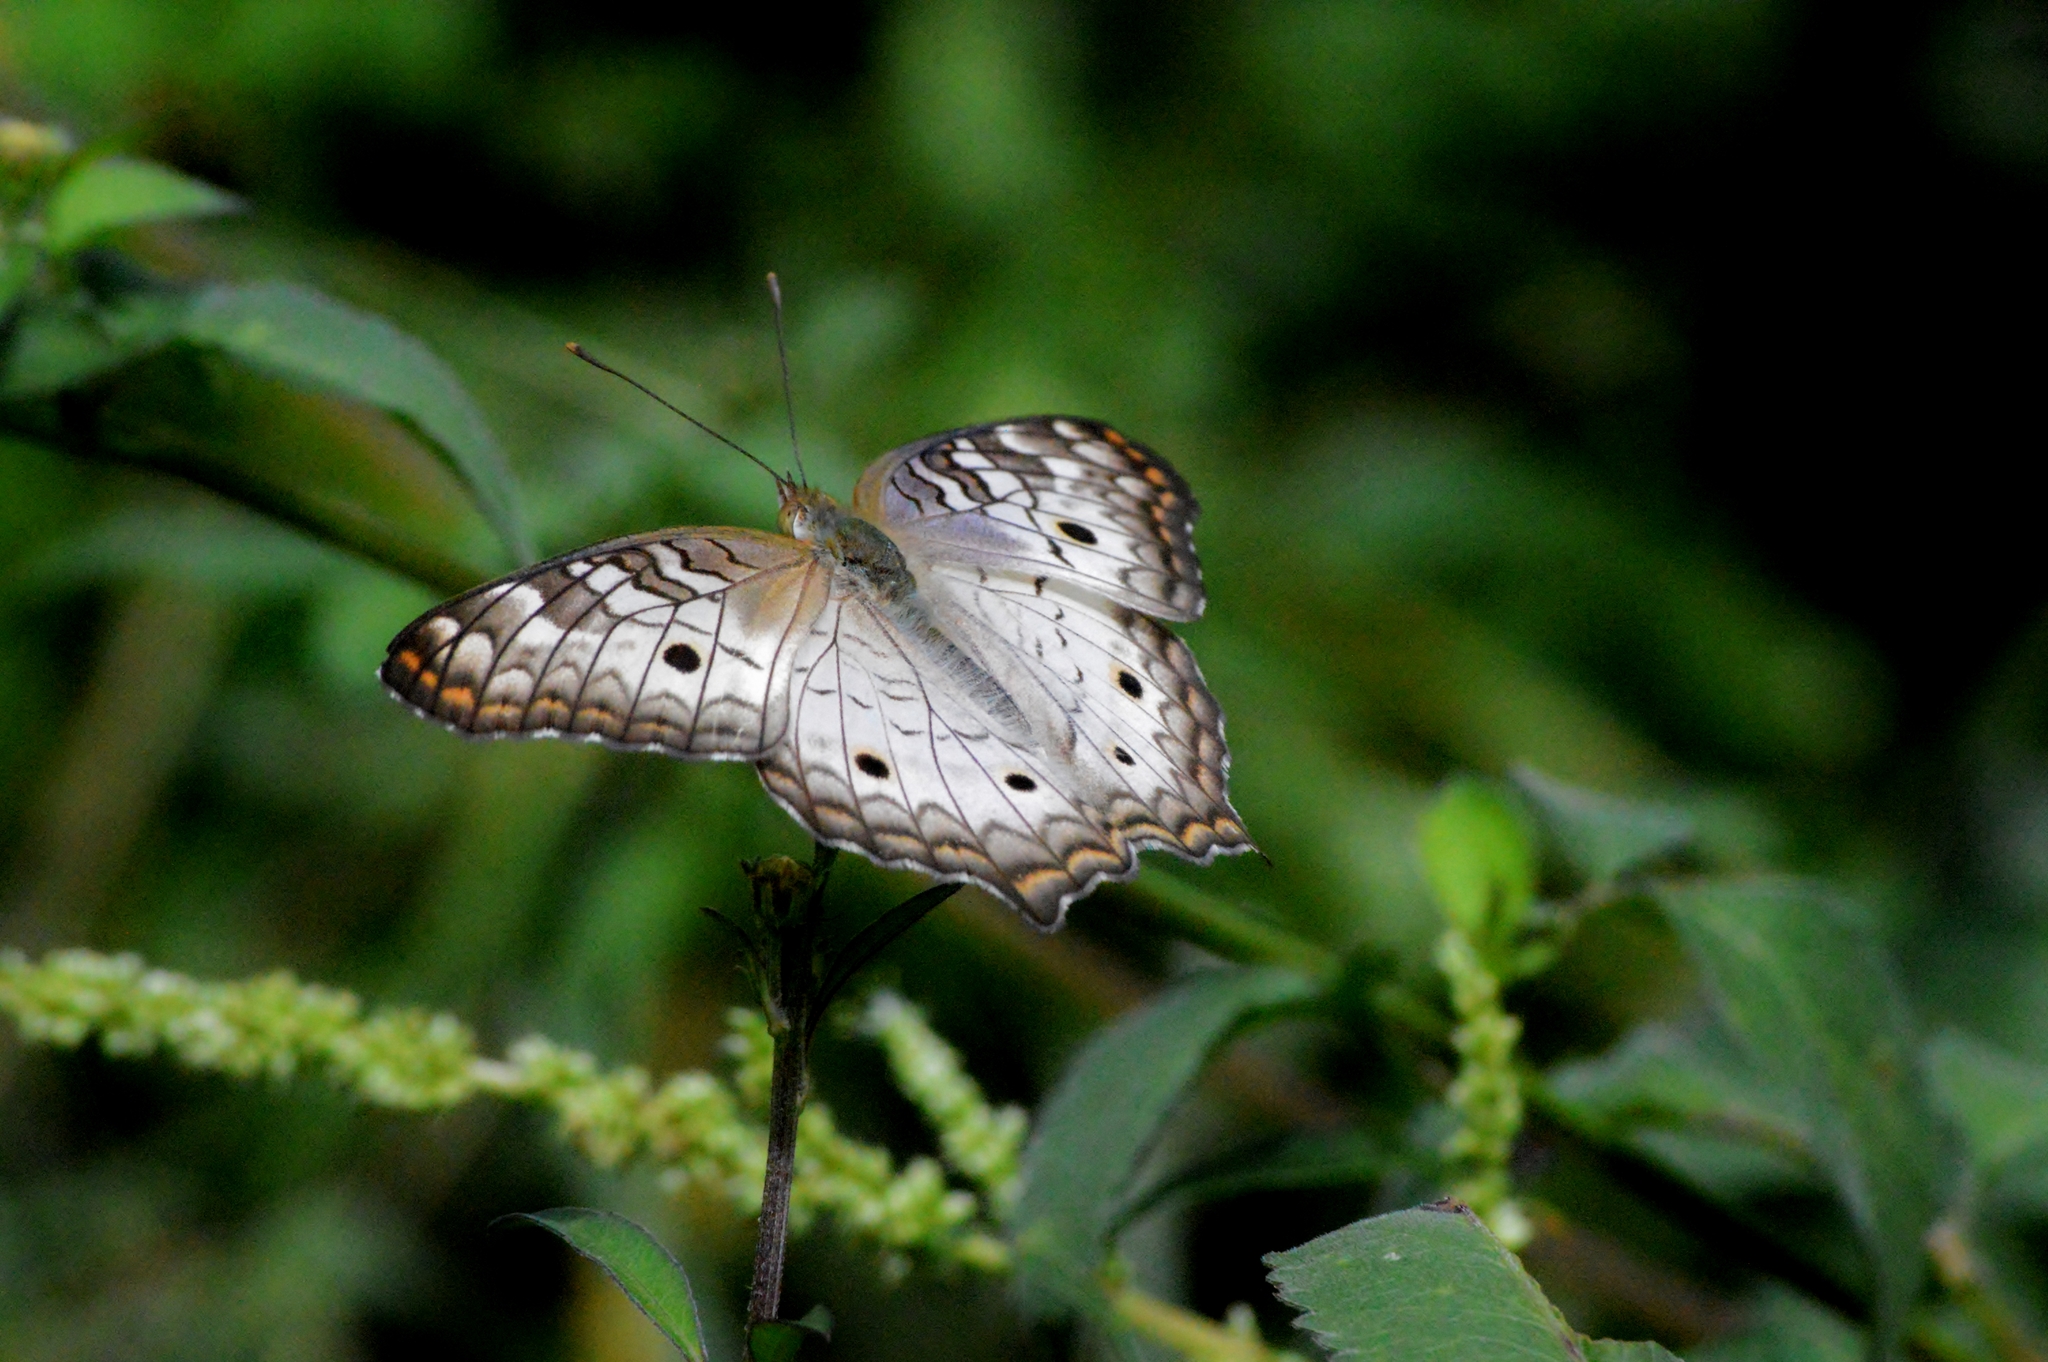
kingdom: Animalia
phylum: Arthropoda
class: Insecta
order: Lepidoptera
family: Nymphalidae
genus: Anartia
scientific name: Anartia jatrophae
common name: White peacock
